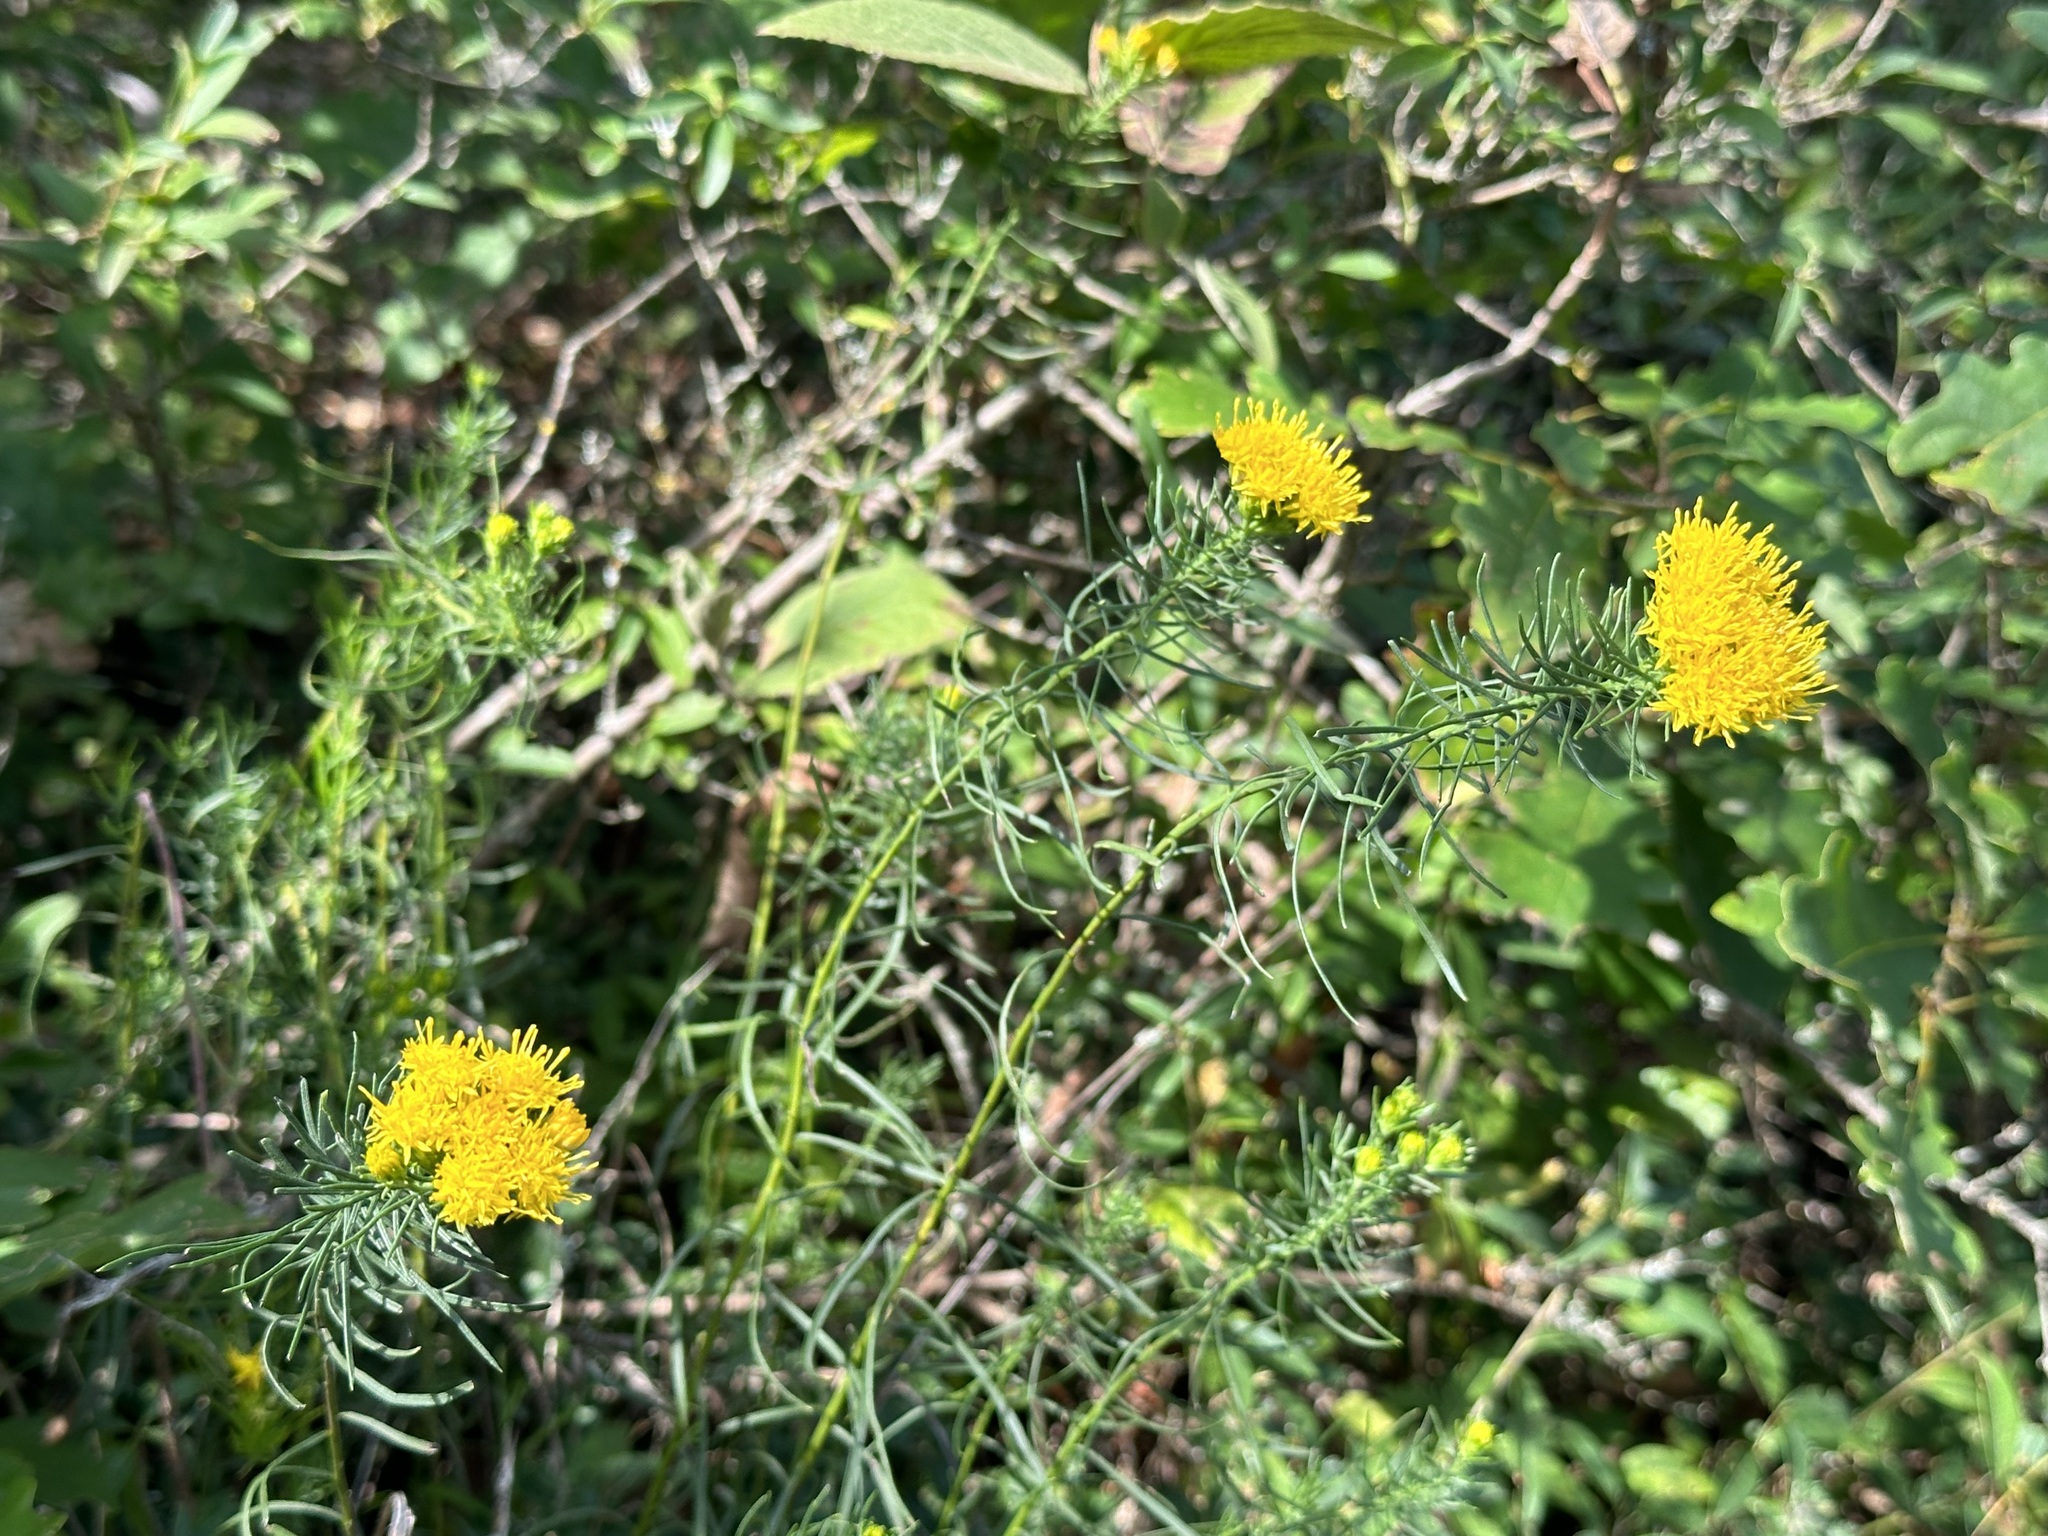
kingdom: Plantae
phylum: Tracheophyta
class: Magnoliopsida
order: Asterales
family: Asteraceae
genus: Galatella
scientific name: Galatella linosyris
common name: Goldilocks aster
